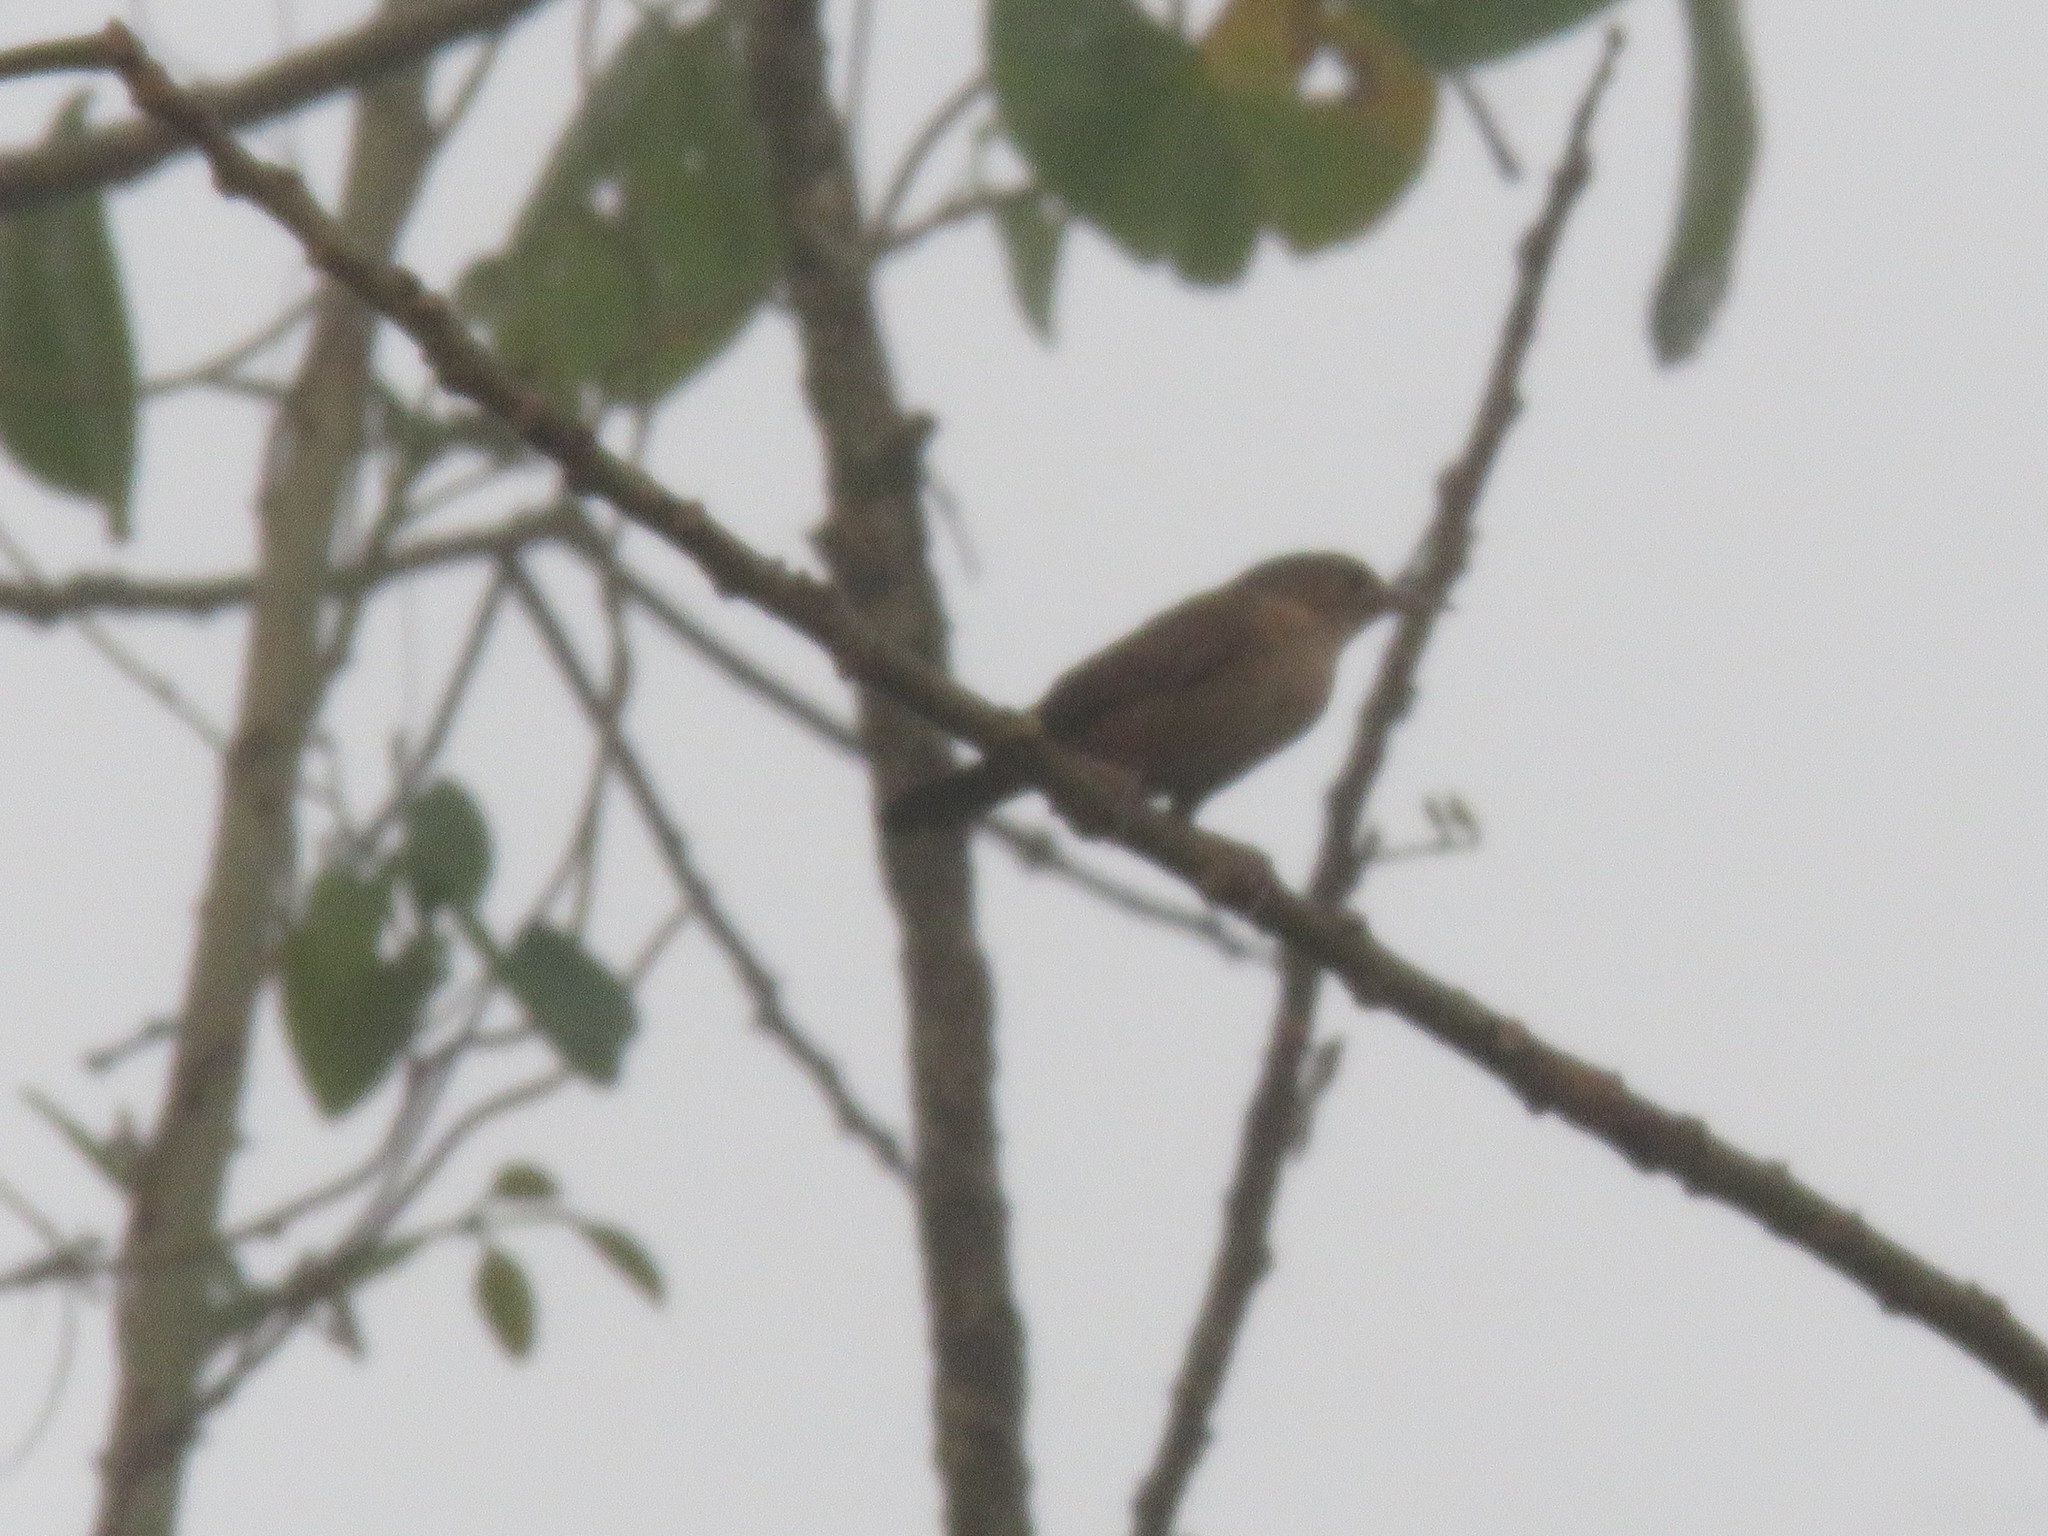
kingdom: Animalia
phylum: Chordata
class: Aves
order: Passeriformes
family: Troglodytidae
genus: Troglodytes
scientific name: Troglodytes aedon
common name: House wren
